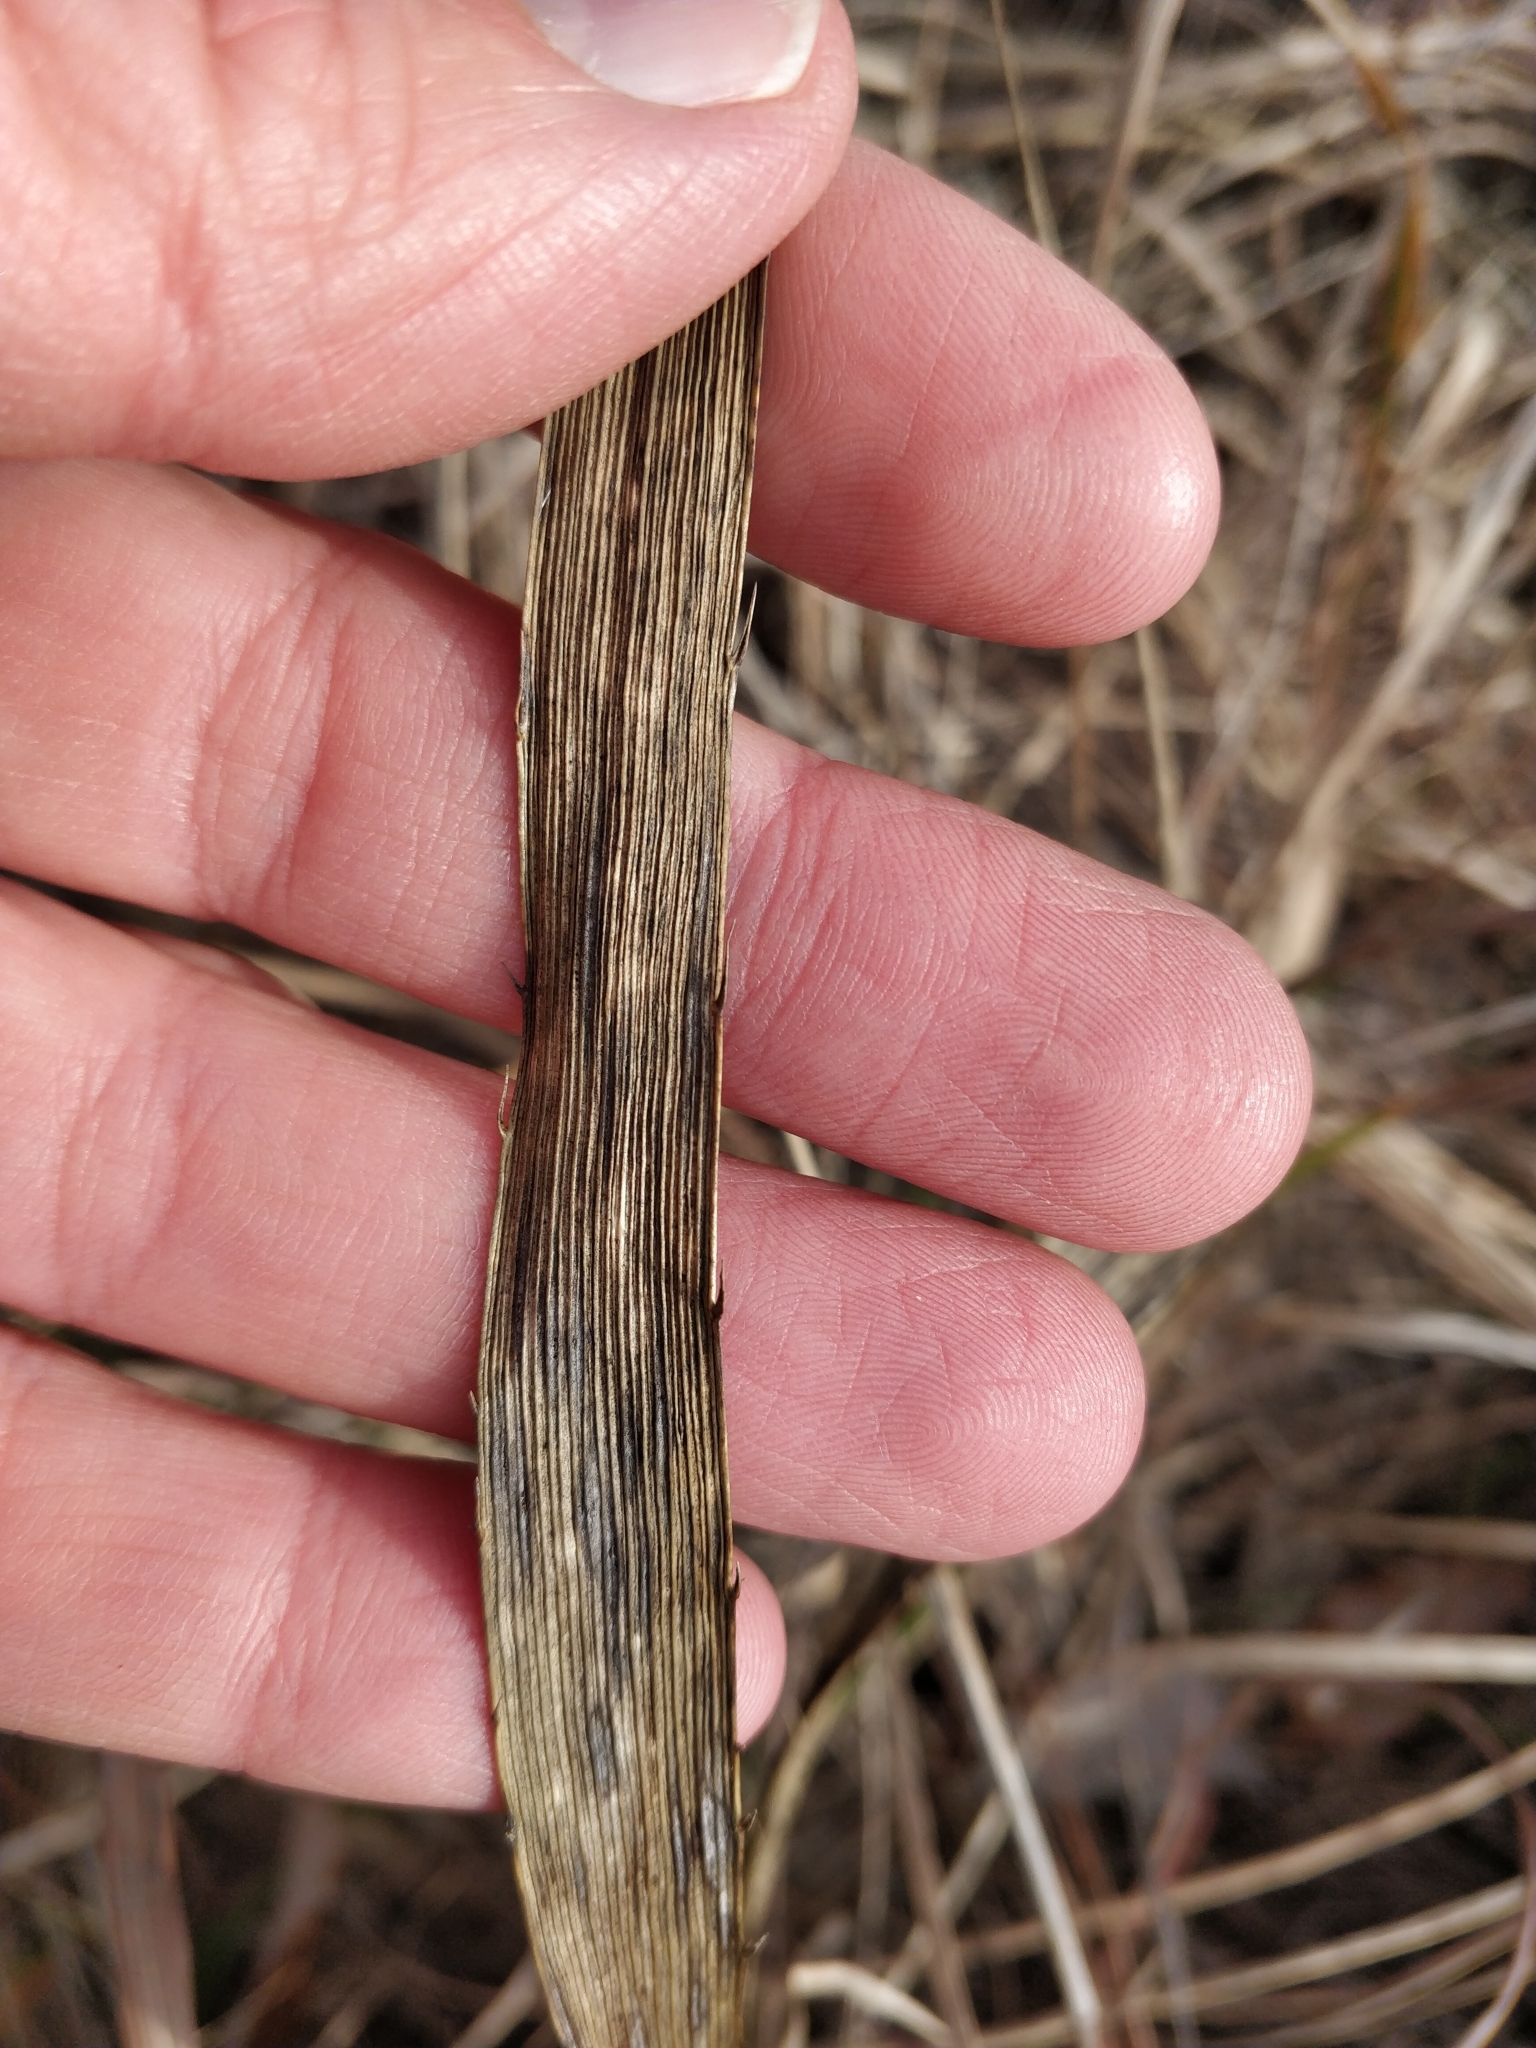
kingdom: Plantae
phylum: Tracheophyta
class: Magnoliopsida
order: Apiales
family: Apiaceae
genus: Eryngium
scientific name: Eryngium yuccifolium
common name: Button eryngo
